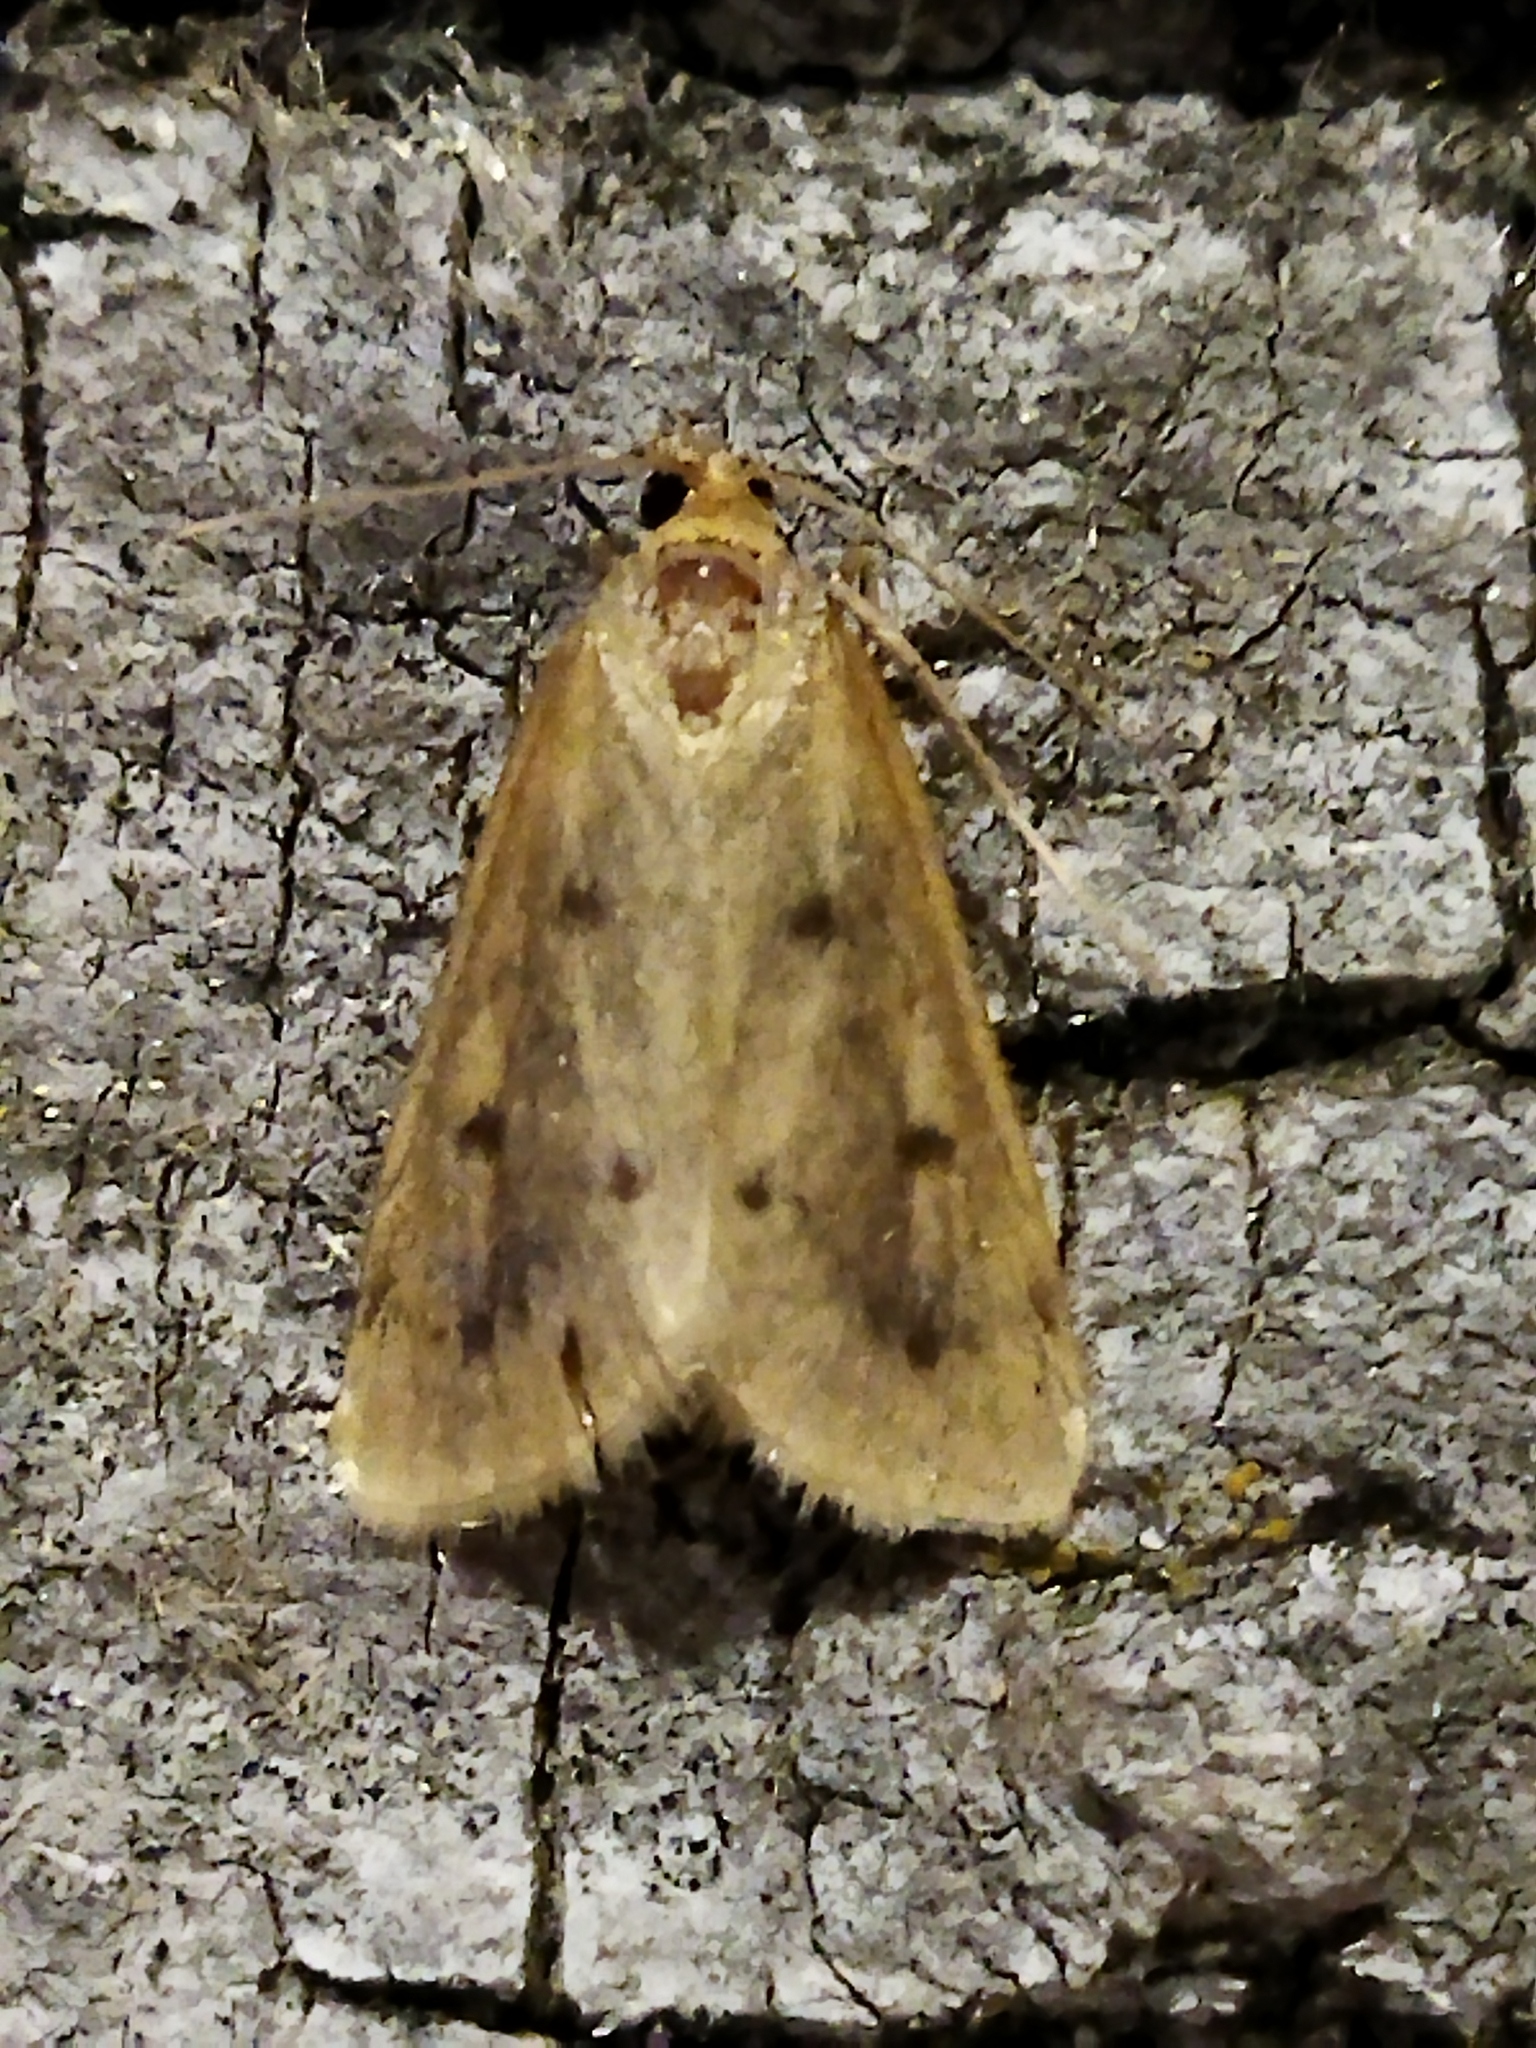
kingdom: Animalia
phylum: Arthropoda
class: Insecta
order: Lepidoptera
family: Crambidae
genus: Achyra
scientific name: Achyra nudalis
